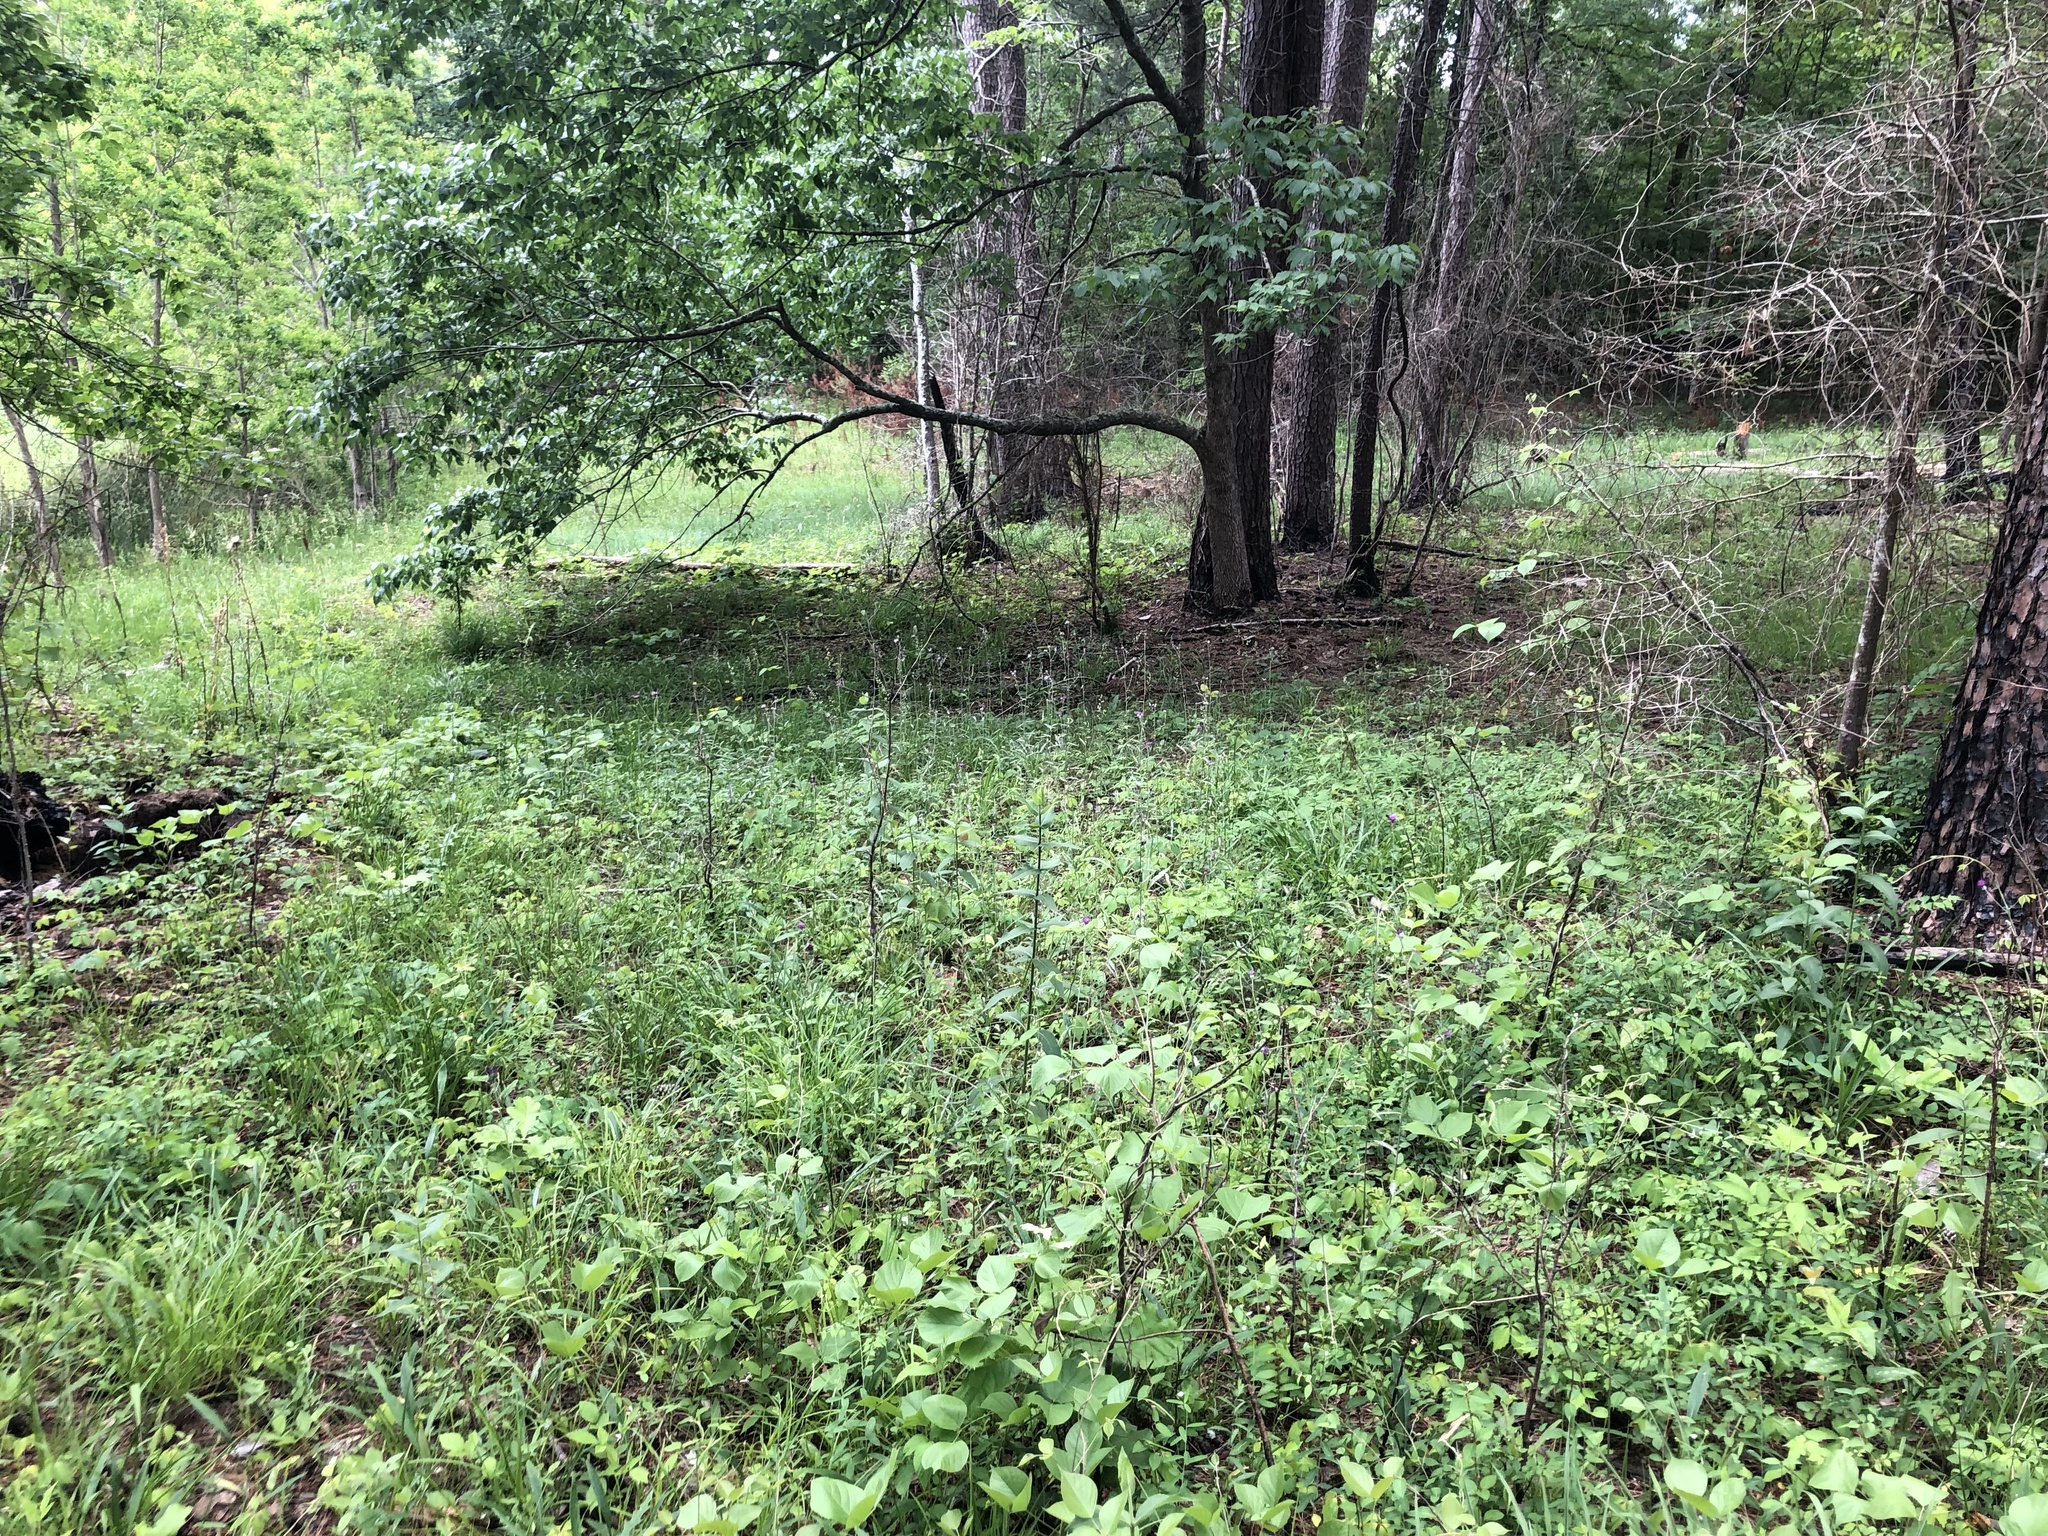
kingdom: Plantae
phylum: Tracheophyta
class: Magnoliopsida
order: Asterales
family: Asteraceae
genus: Cirsium
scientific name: Cirsium carolinianum
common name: Carolina thistle
